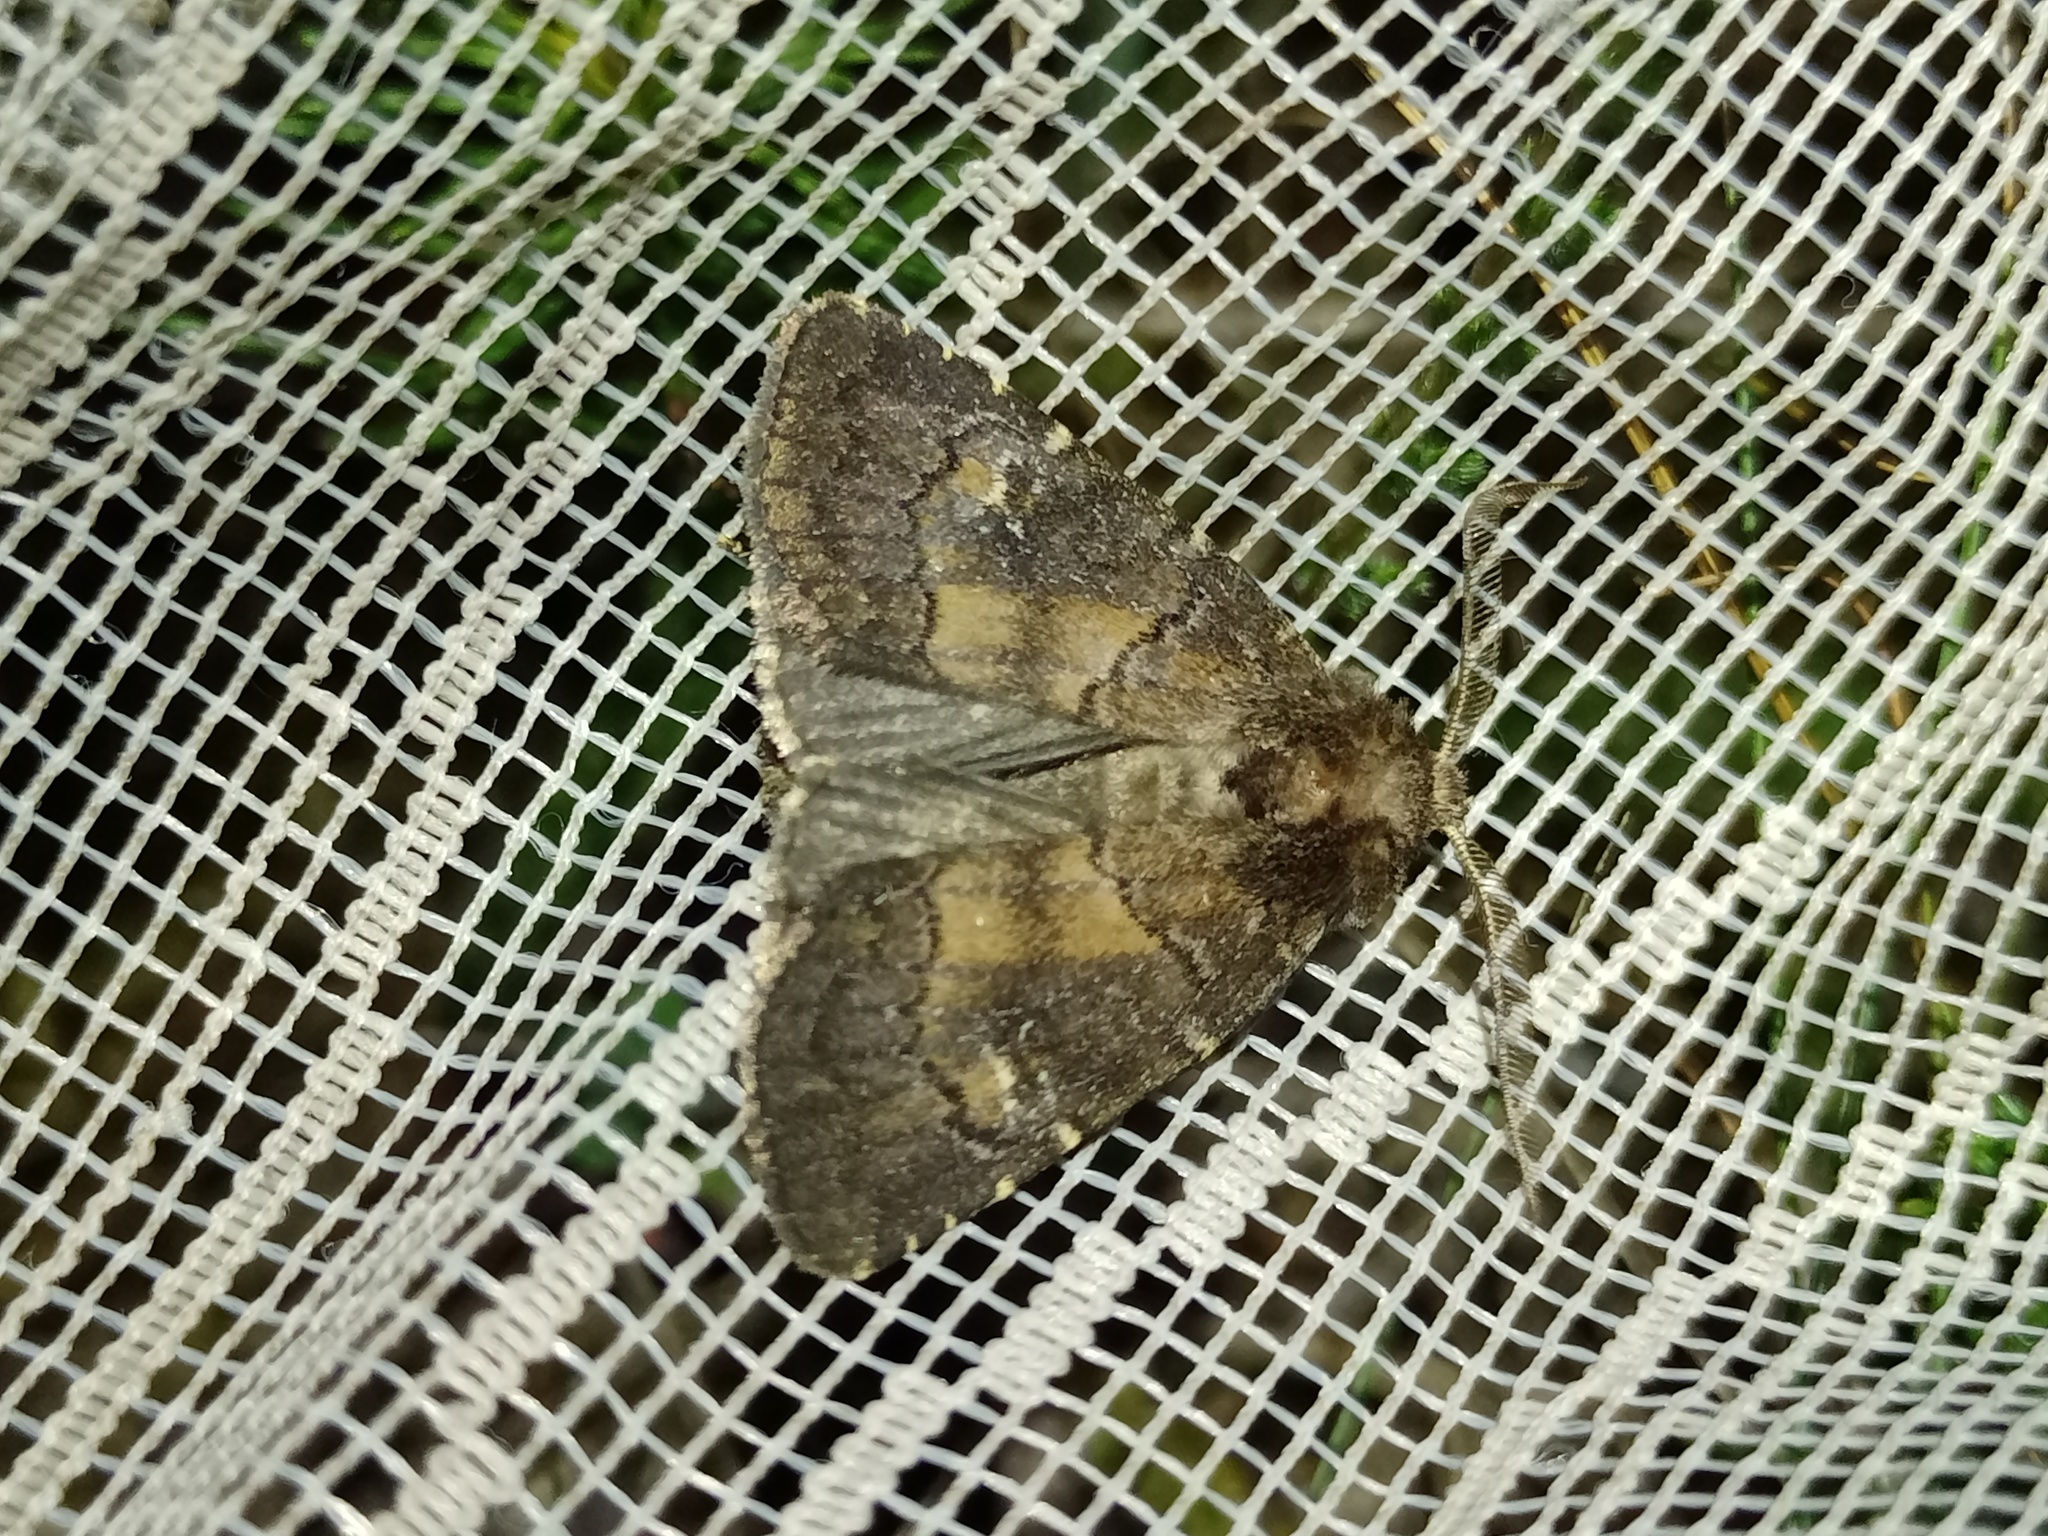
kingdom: Animalia
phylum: Arthropoda
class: Insecta
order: Lepidoptera
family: Noctuidae
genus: Charanyca
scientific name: Charanyca ferruginea
